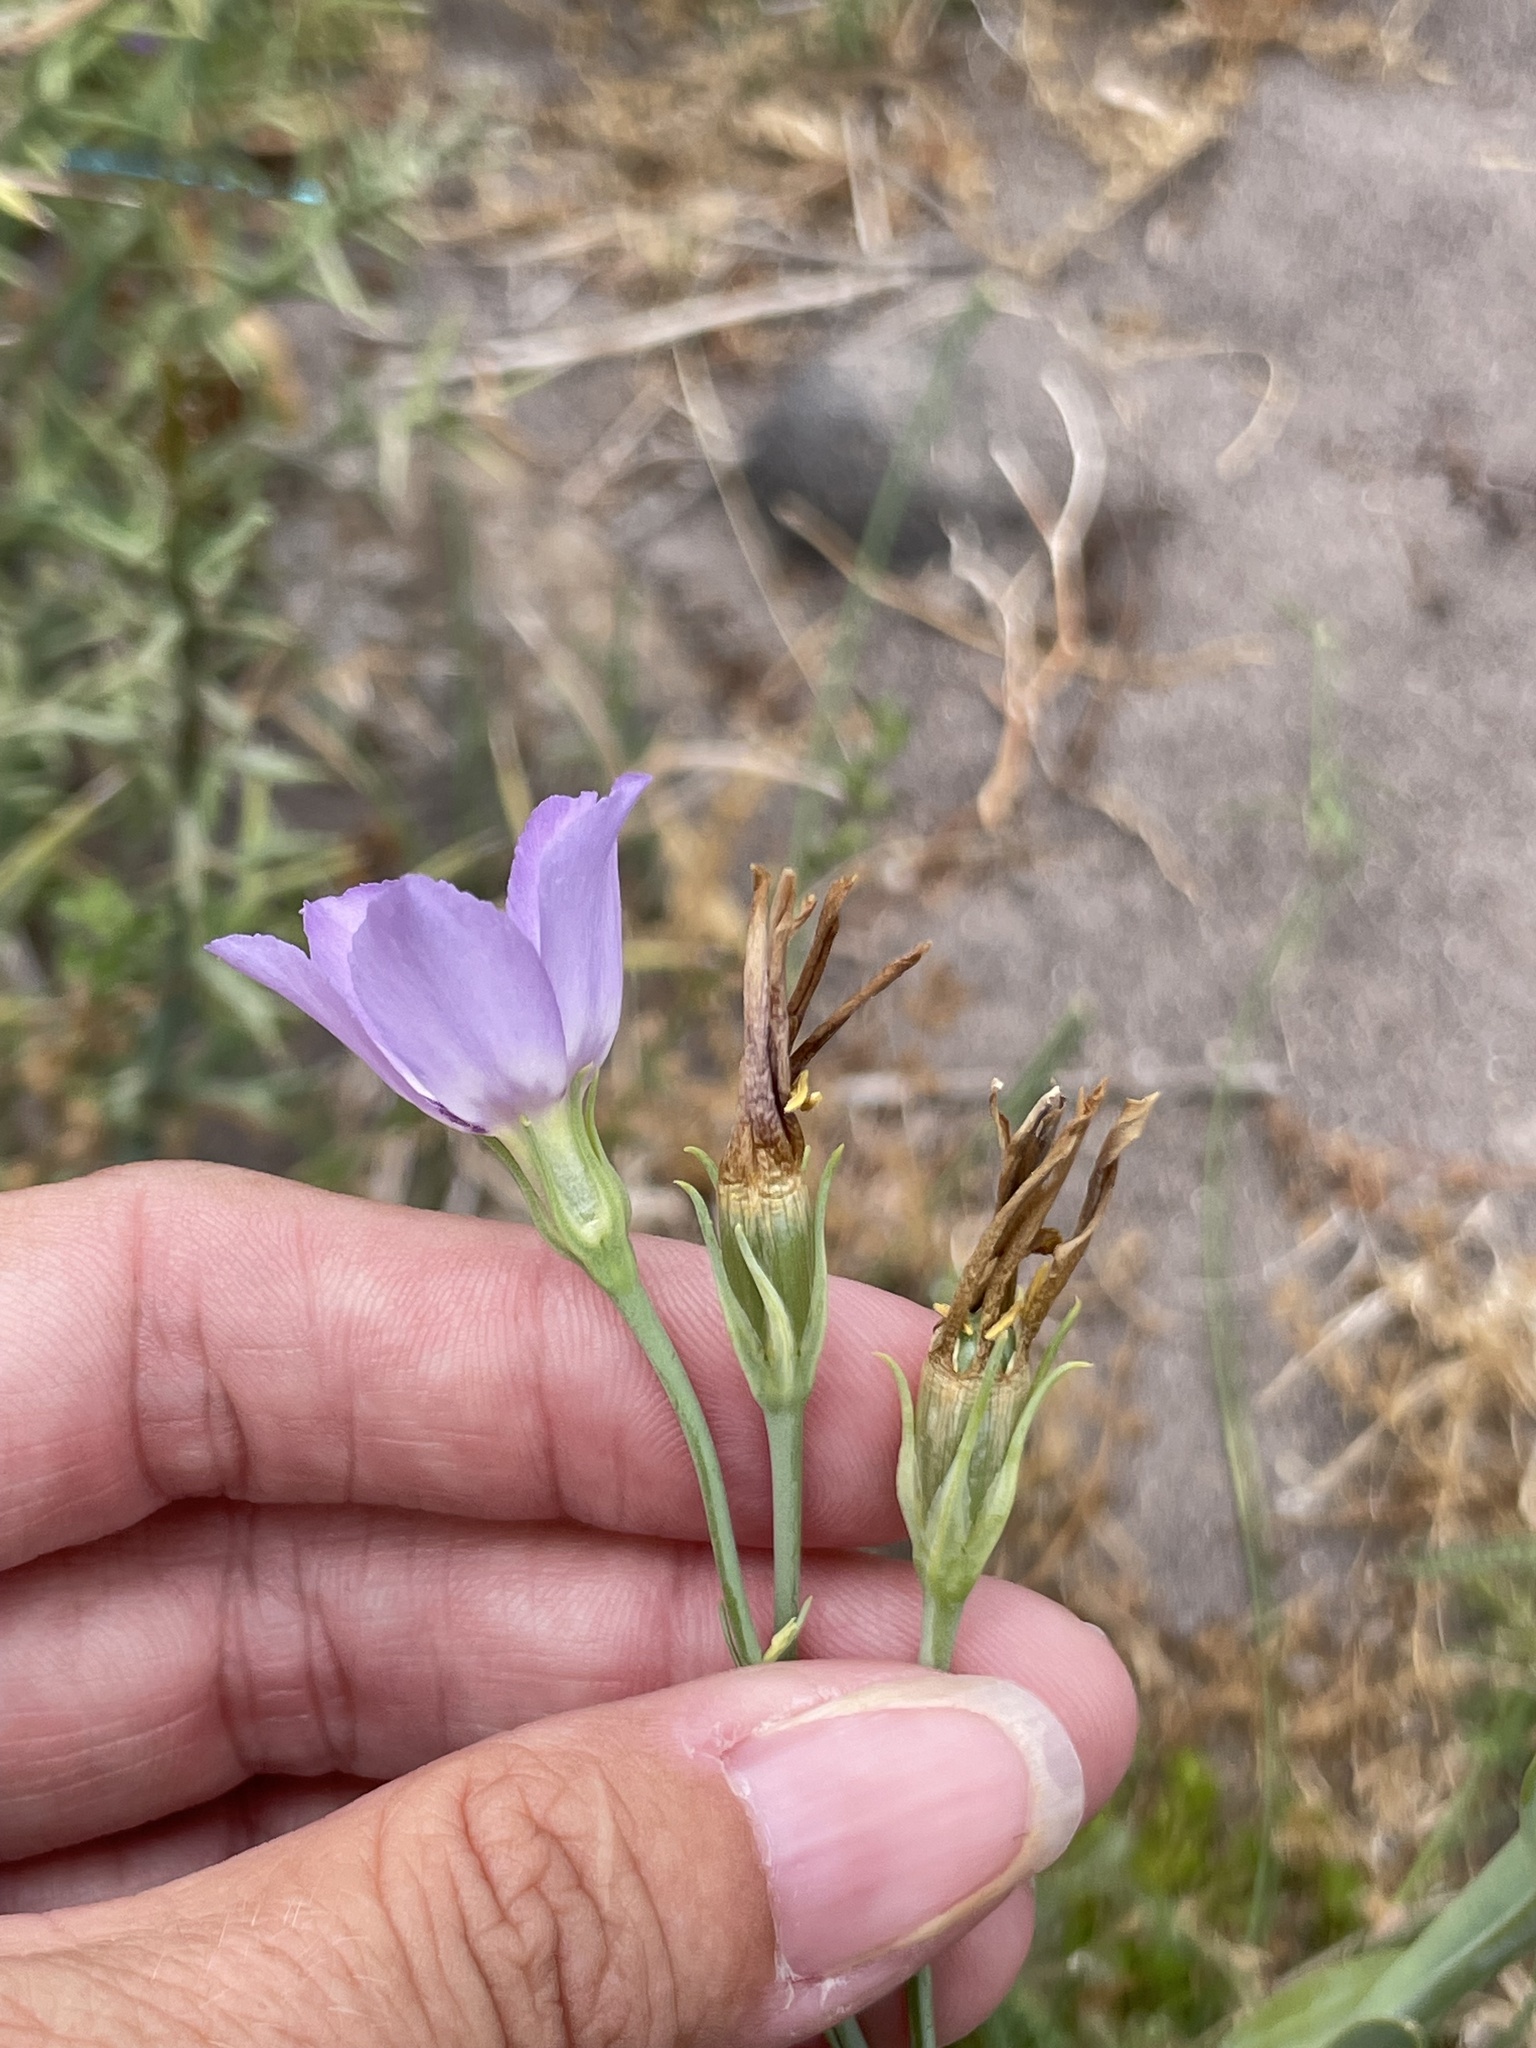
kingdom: Plantae
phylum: Tracheophyta
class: Magnoliopsida
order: Gentianales
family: Gentianaceae
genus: Eustoma
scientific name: Eustoma exaltatum
